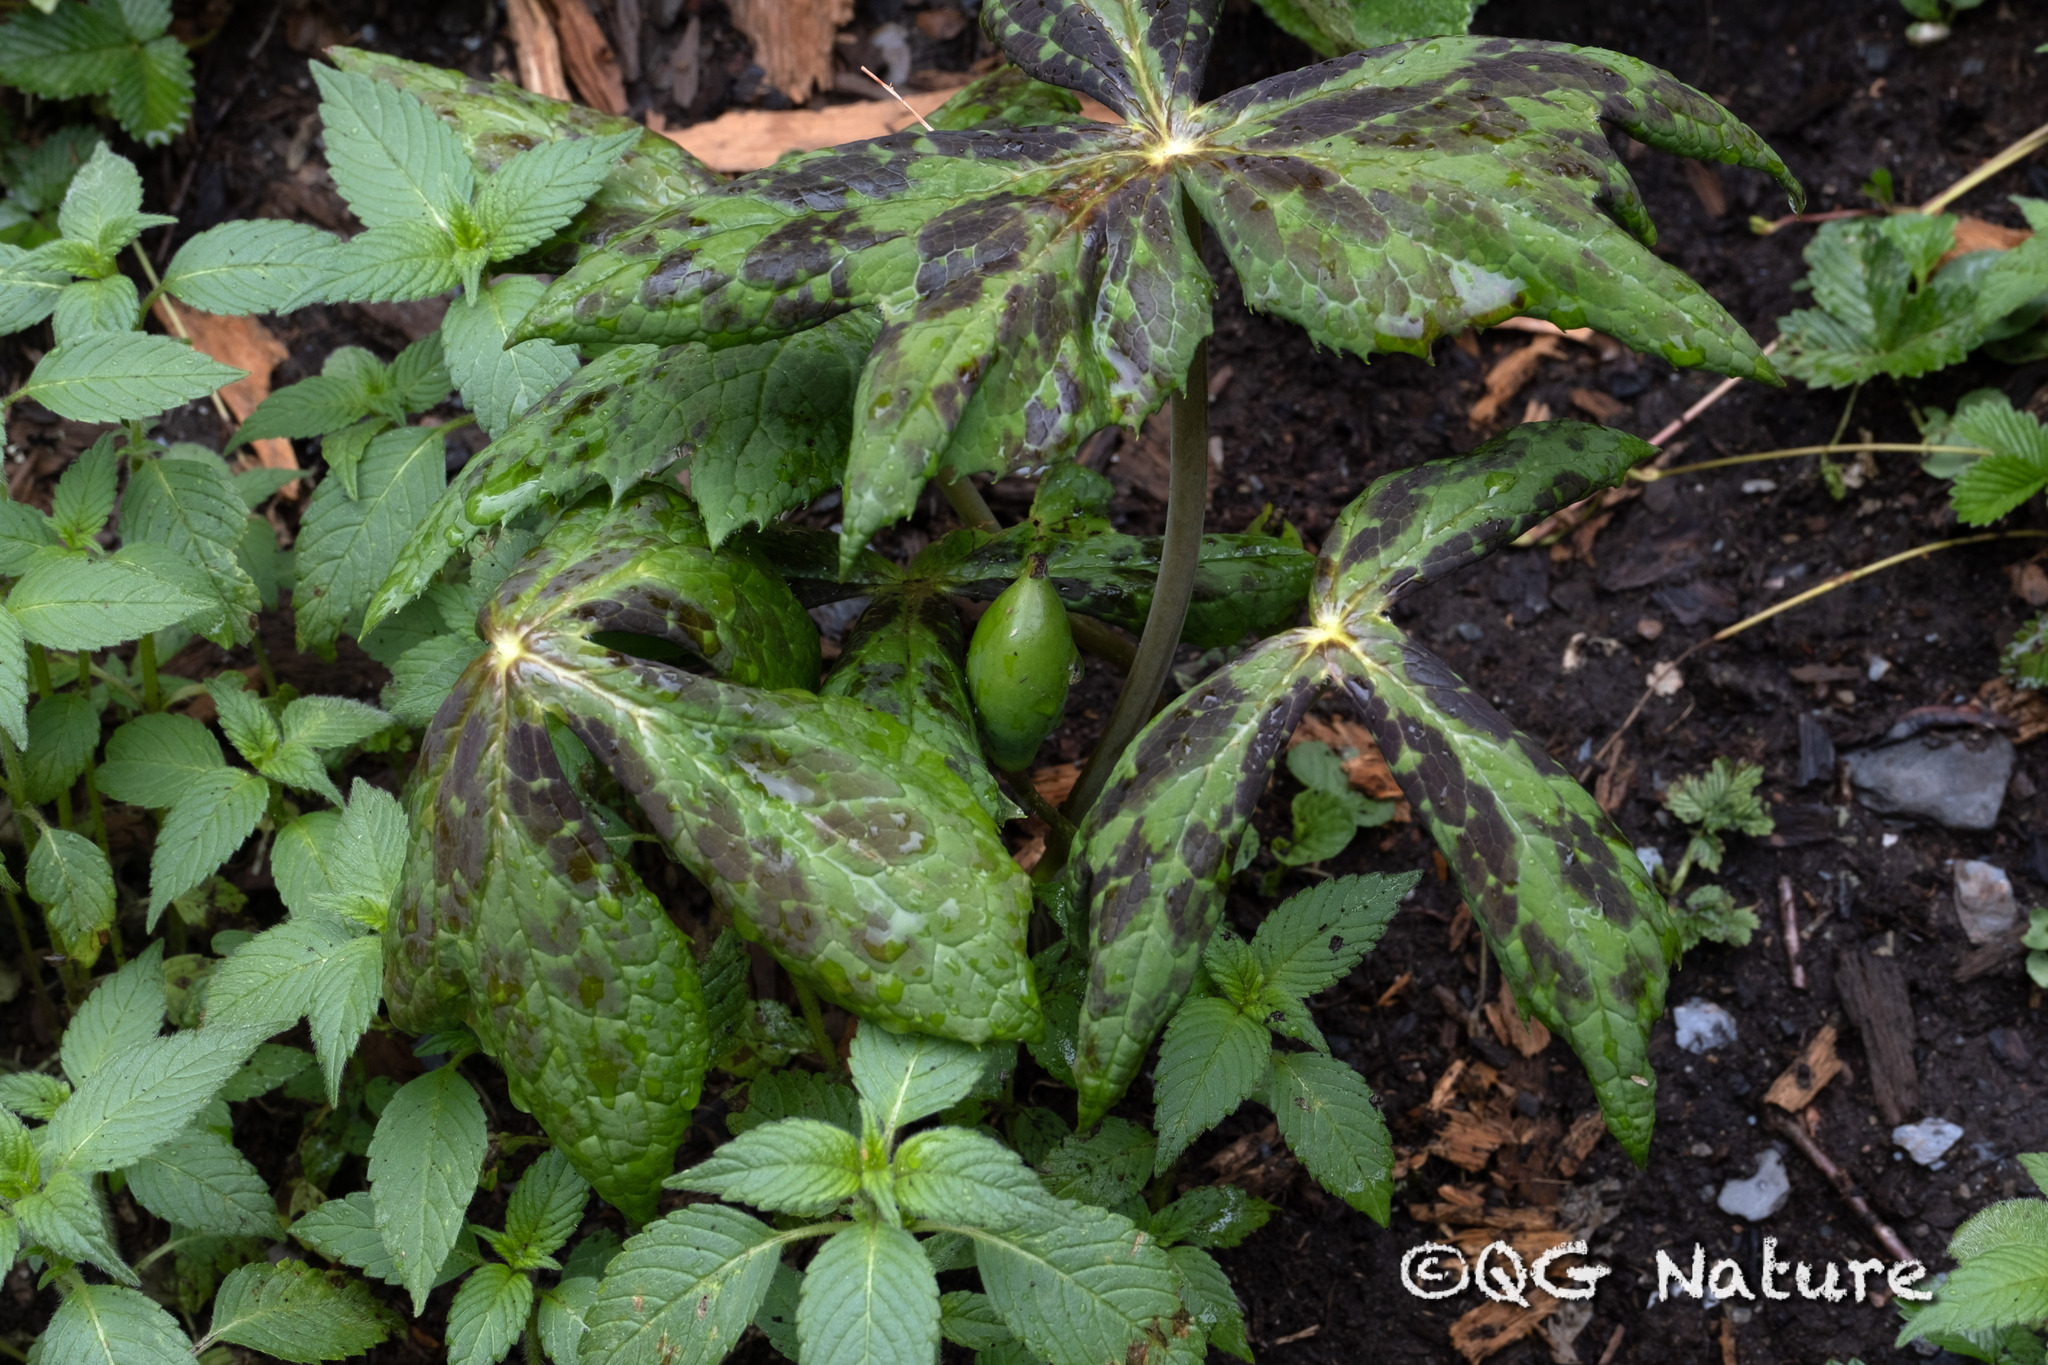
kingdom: Plantae
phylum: Tracheophyta
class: Magnoliopsida
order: Ranunculales
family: Berberidaceae
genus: Sinopodophyllum
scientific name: Sinopodophyllum hexandrum
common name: Himalayan may-apple
